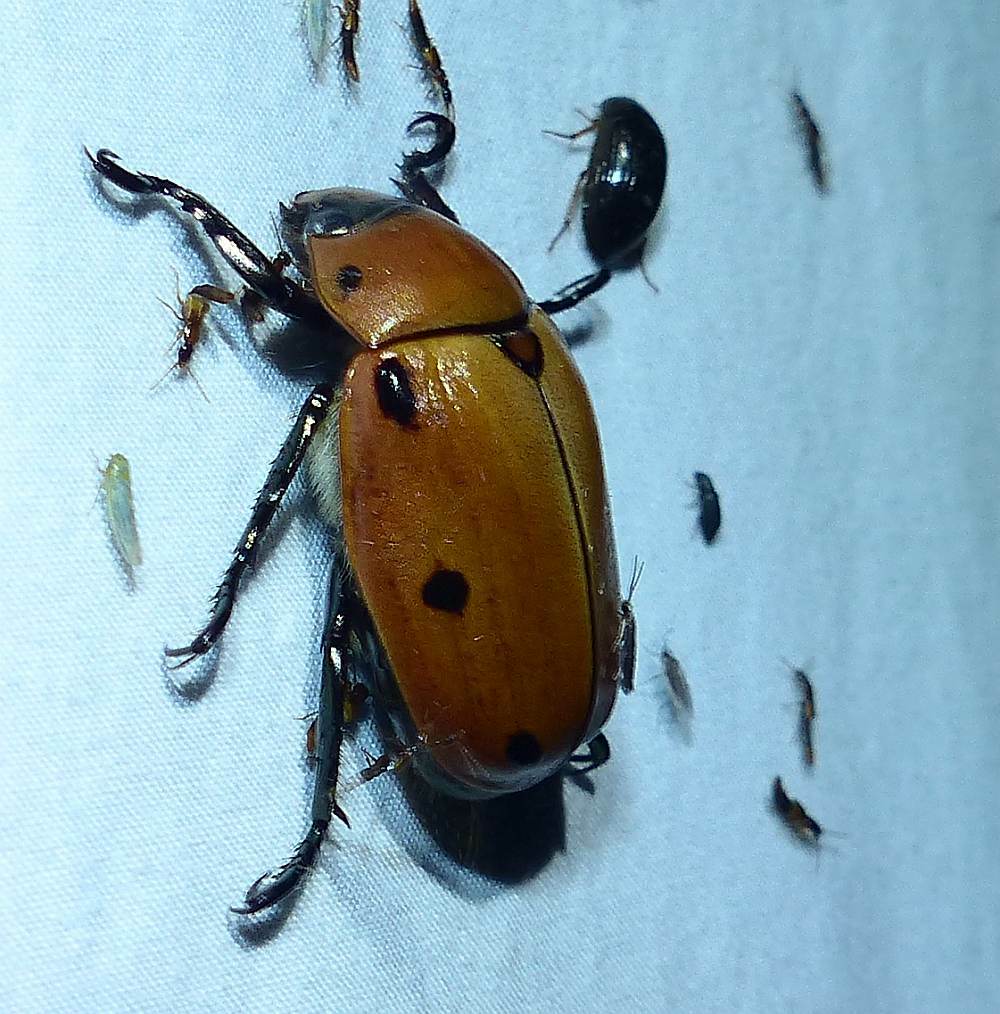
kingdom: Animalia
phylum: Arthropoda
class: Insecta
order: Coleoptera
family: Scarabaeidae
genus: Pelidnota
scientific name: Pelidnota punctata
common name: Grapevine beetle
